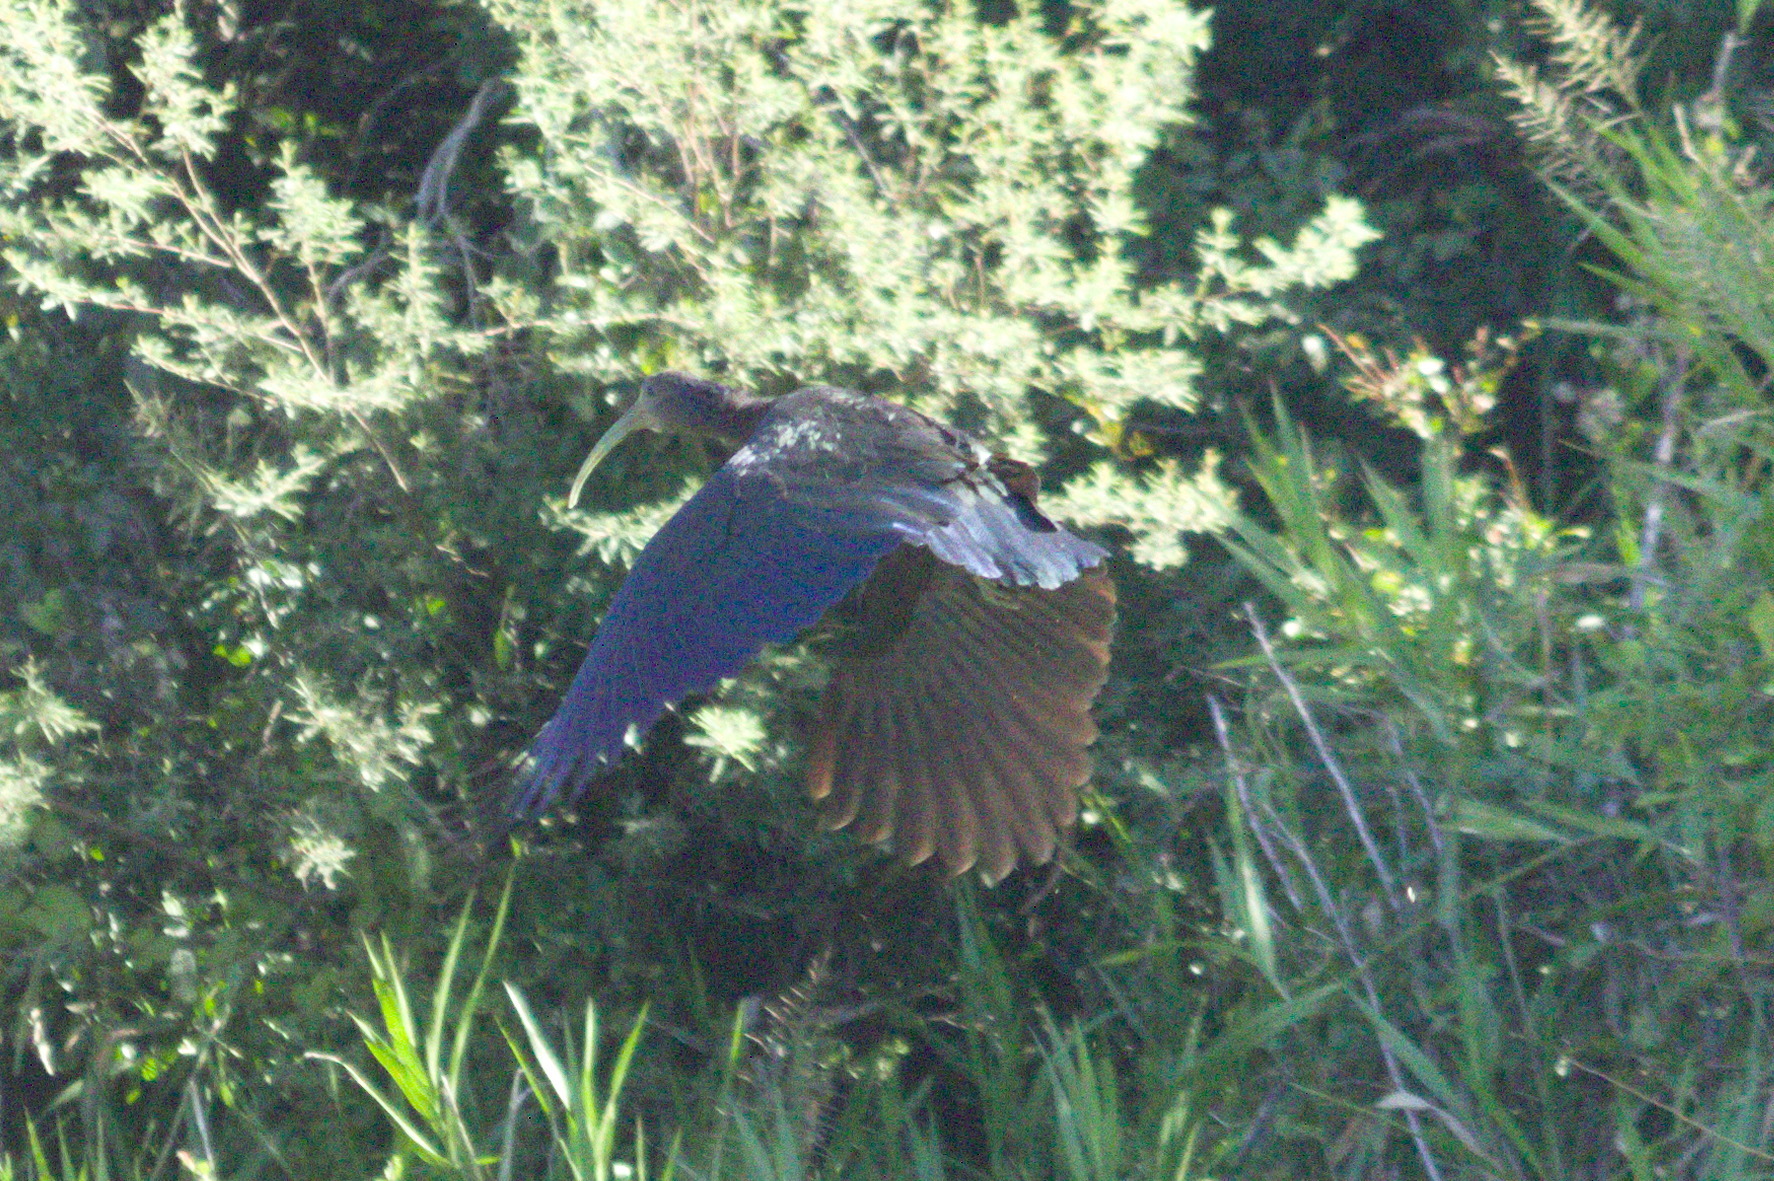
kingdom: Animalia
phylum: Chordata
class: Aves
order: Pelecaniformes
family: Threskiornithidae
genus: Mesembrinibis
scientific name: Mesembrinibis cayennensis
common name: Green ibis
